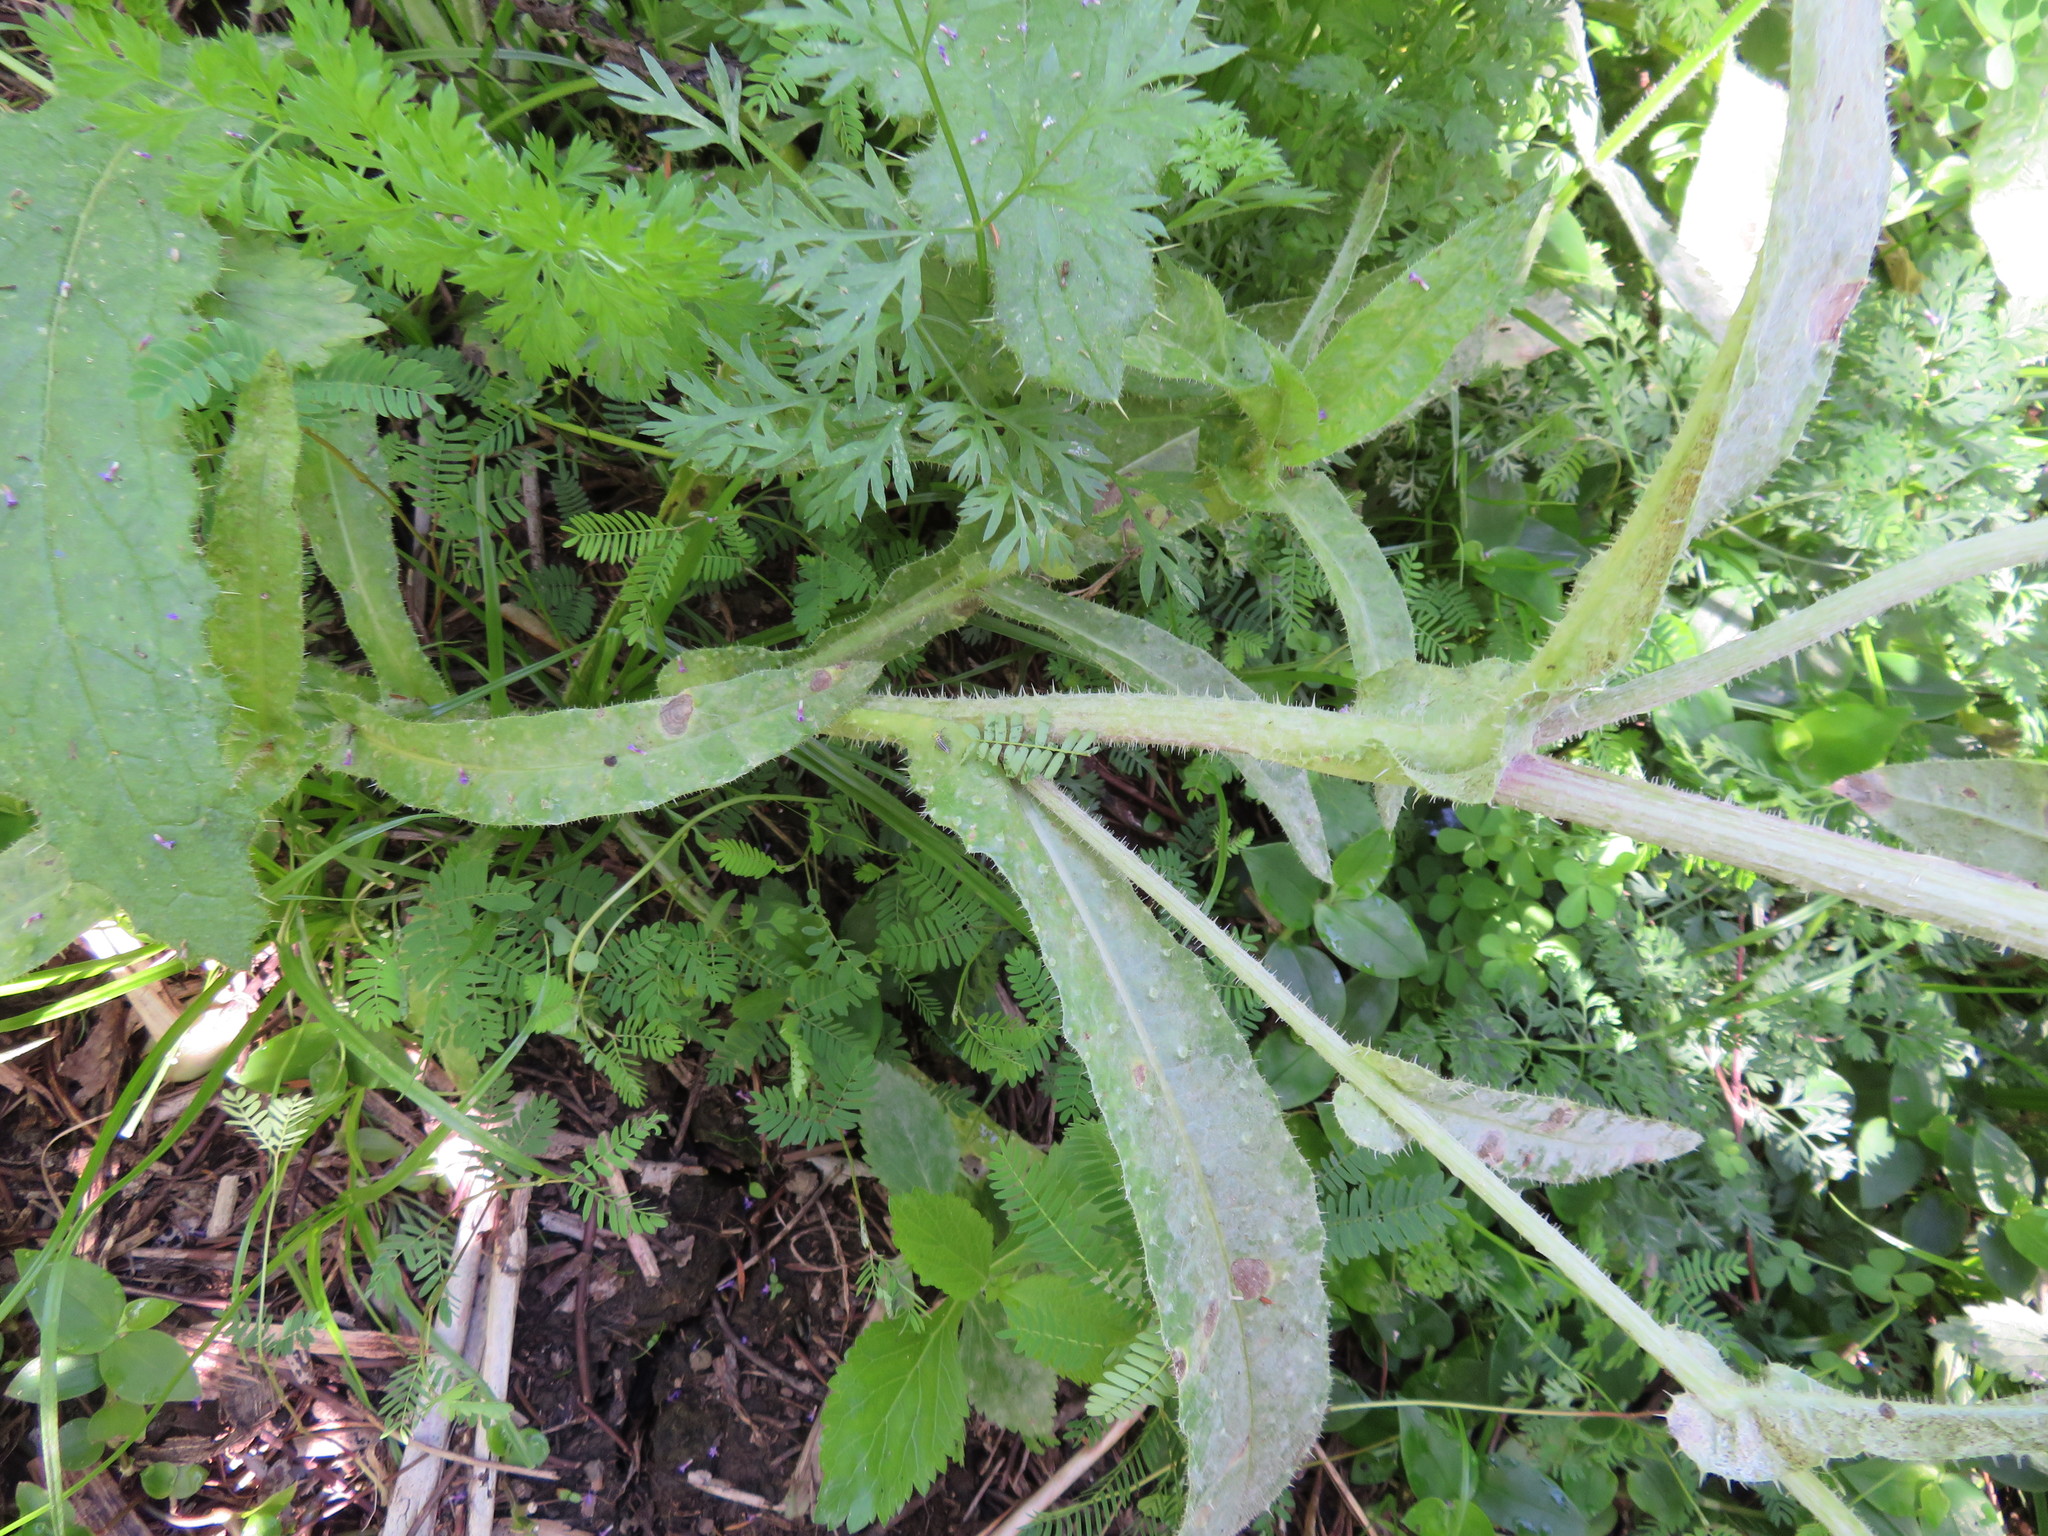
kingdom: Plantae
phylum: Tracheophyta
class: Magnoliopsida
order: Fabales
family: Fabaceae
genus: Paraserianthes
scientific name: Paraserianthes lophantha
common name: Plume albizia
